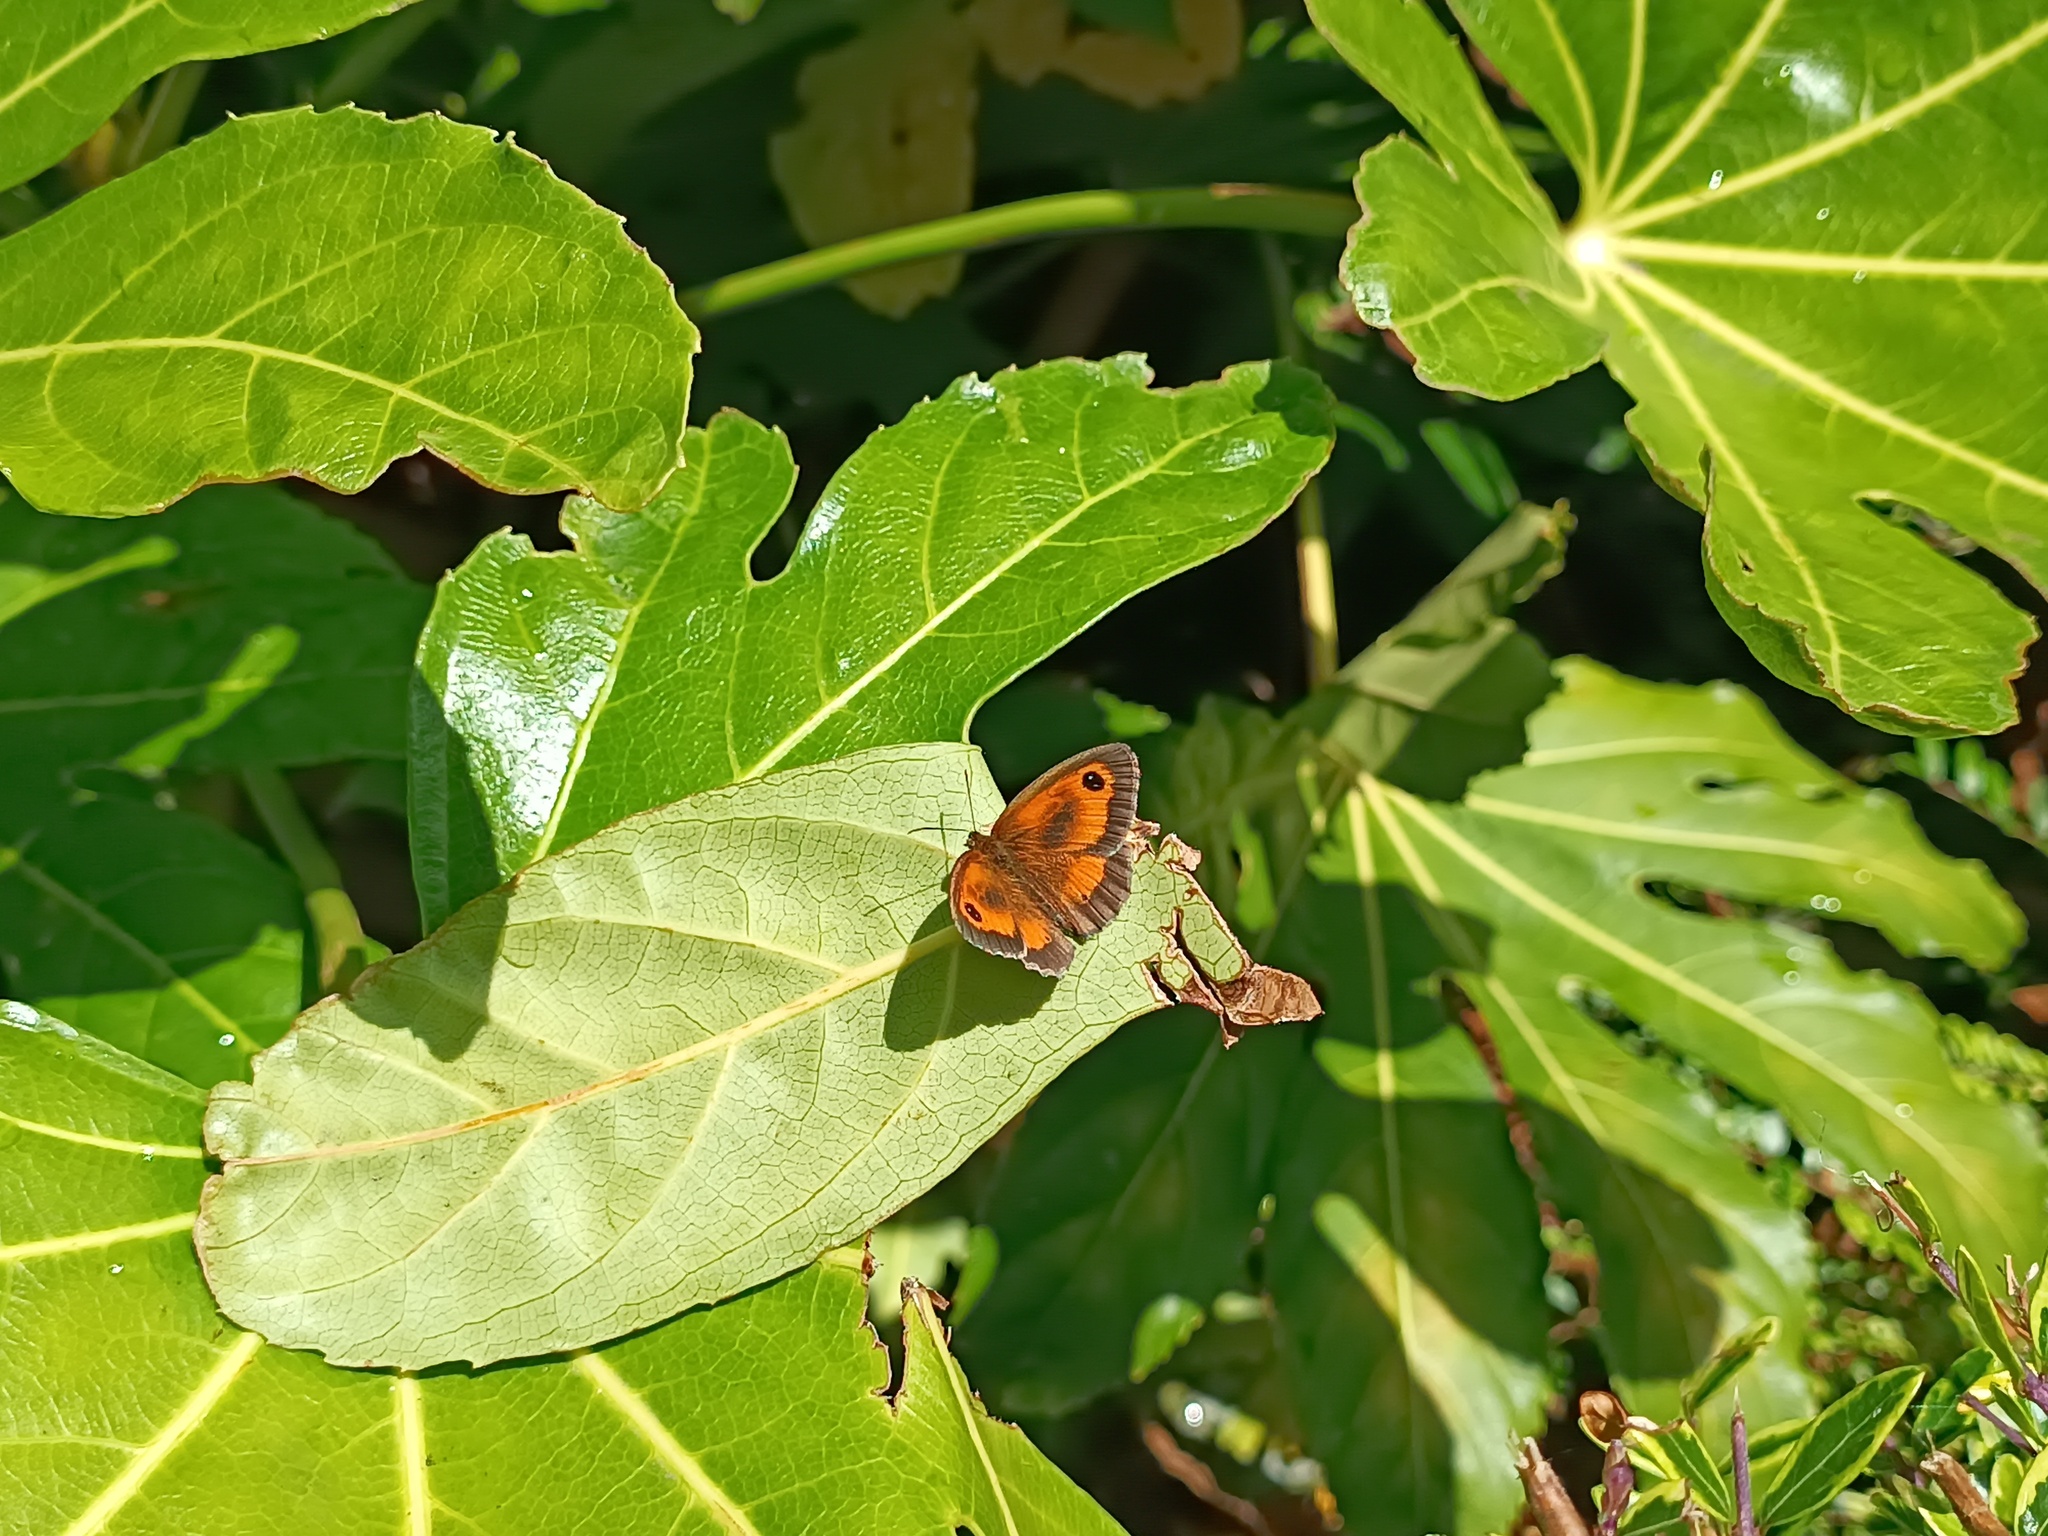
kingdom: Animalia
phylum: Arthropoda
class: Insecta
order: Lepidoptera
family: Nymphalidae
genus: Pyronia
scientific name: Pyronia tithonus
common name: Gatekeeper
